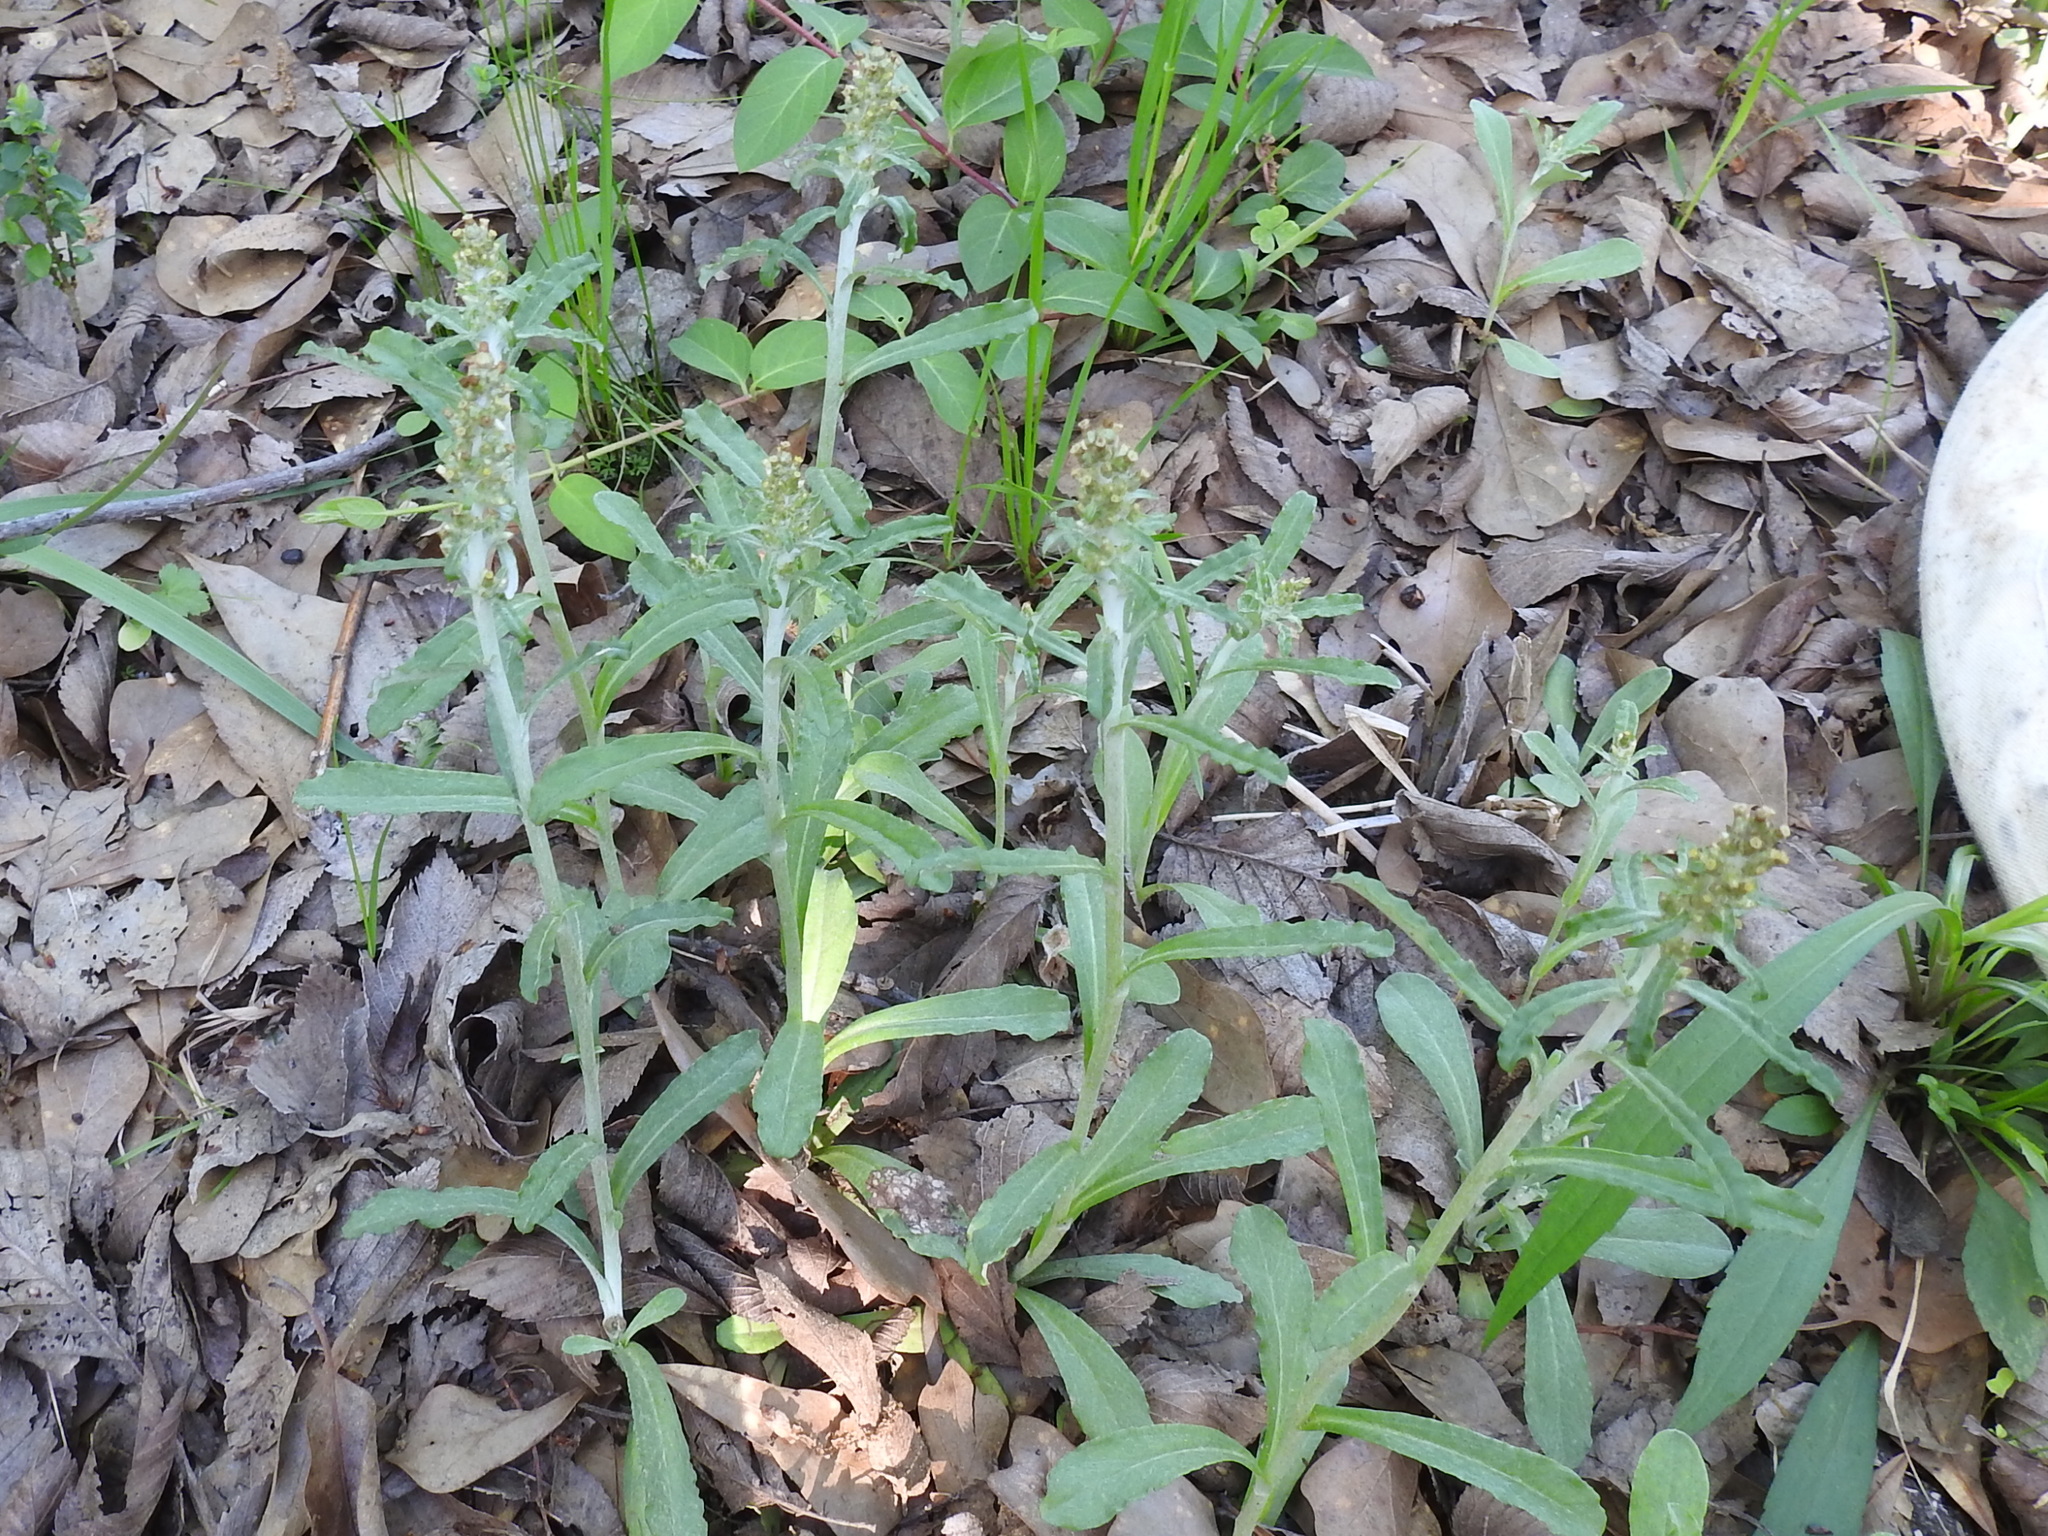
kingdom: Plantae
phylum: Tracheophyta
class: Magnoliopsida
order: Asterales
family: Asteraceae
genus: Gamochaeta
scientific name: Gamochaeta pensylvanica
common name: Pennsylvania everlasting
